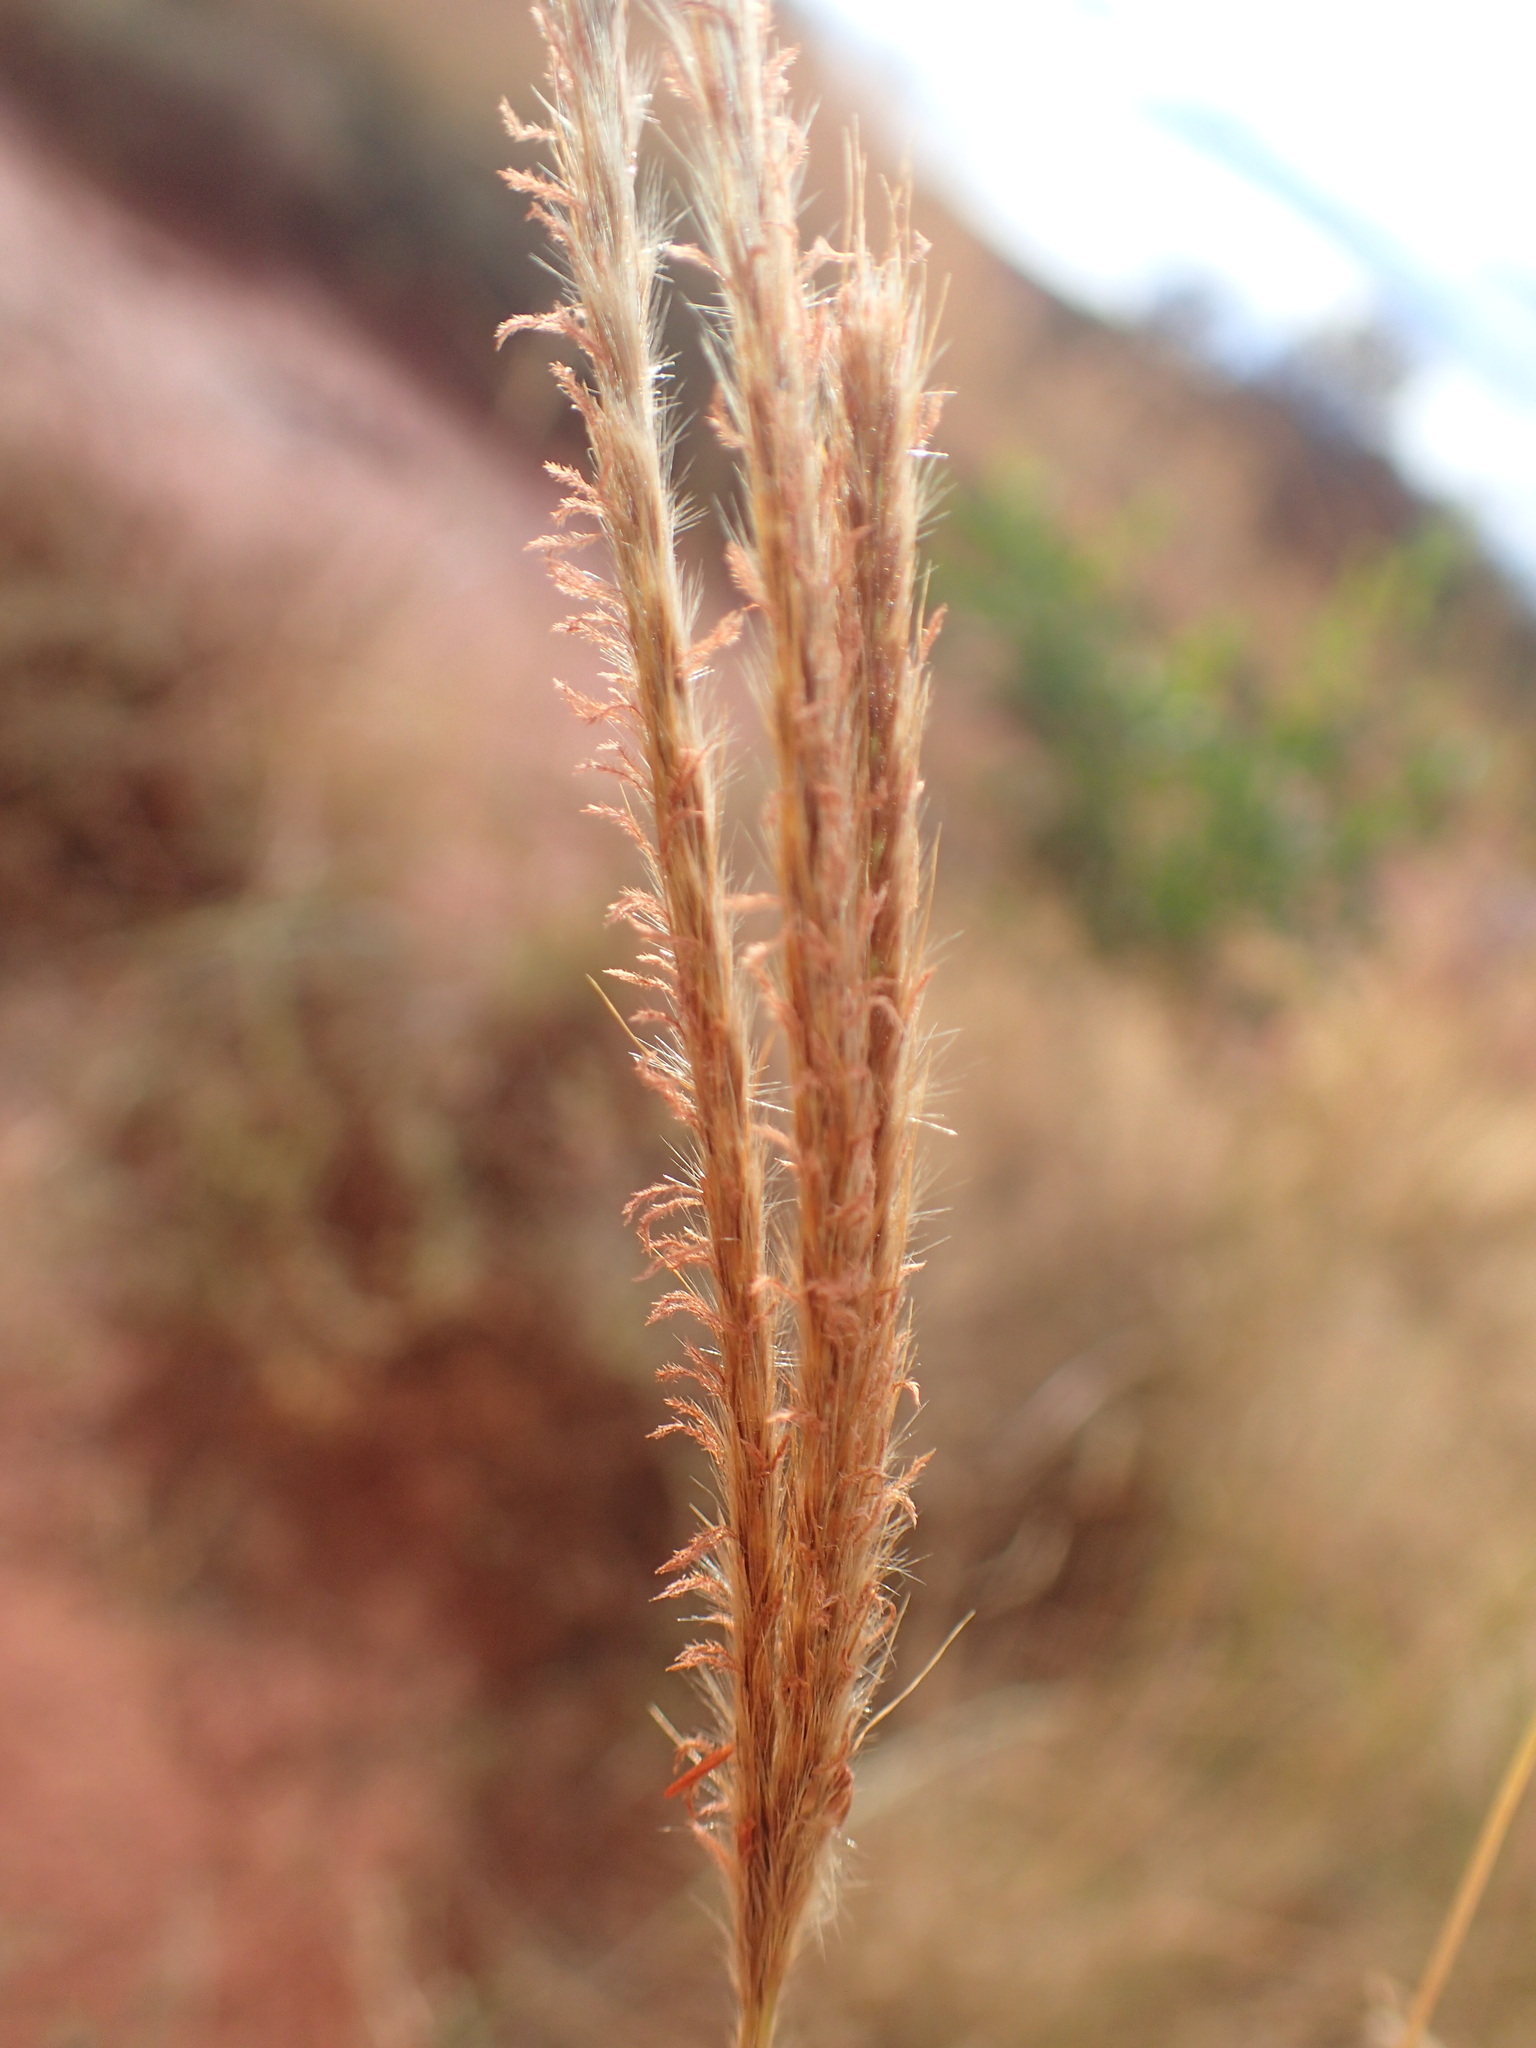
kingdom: Plantae
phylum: Tracheophyta
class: Liliopsida
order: Poales
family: Poaceae
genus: Eulalia
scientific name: Eulalia aurea
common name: Silky browntop
